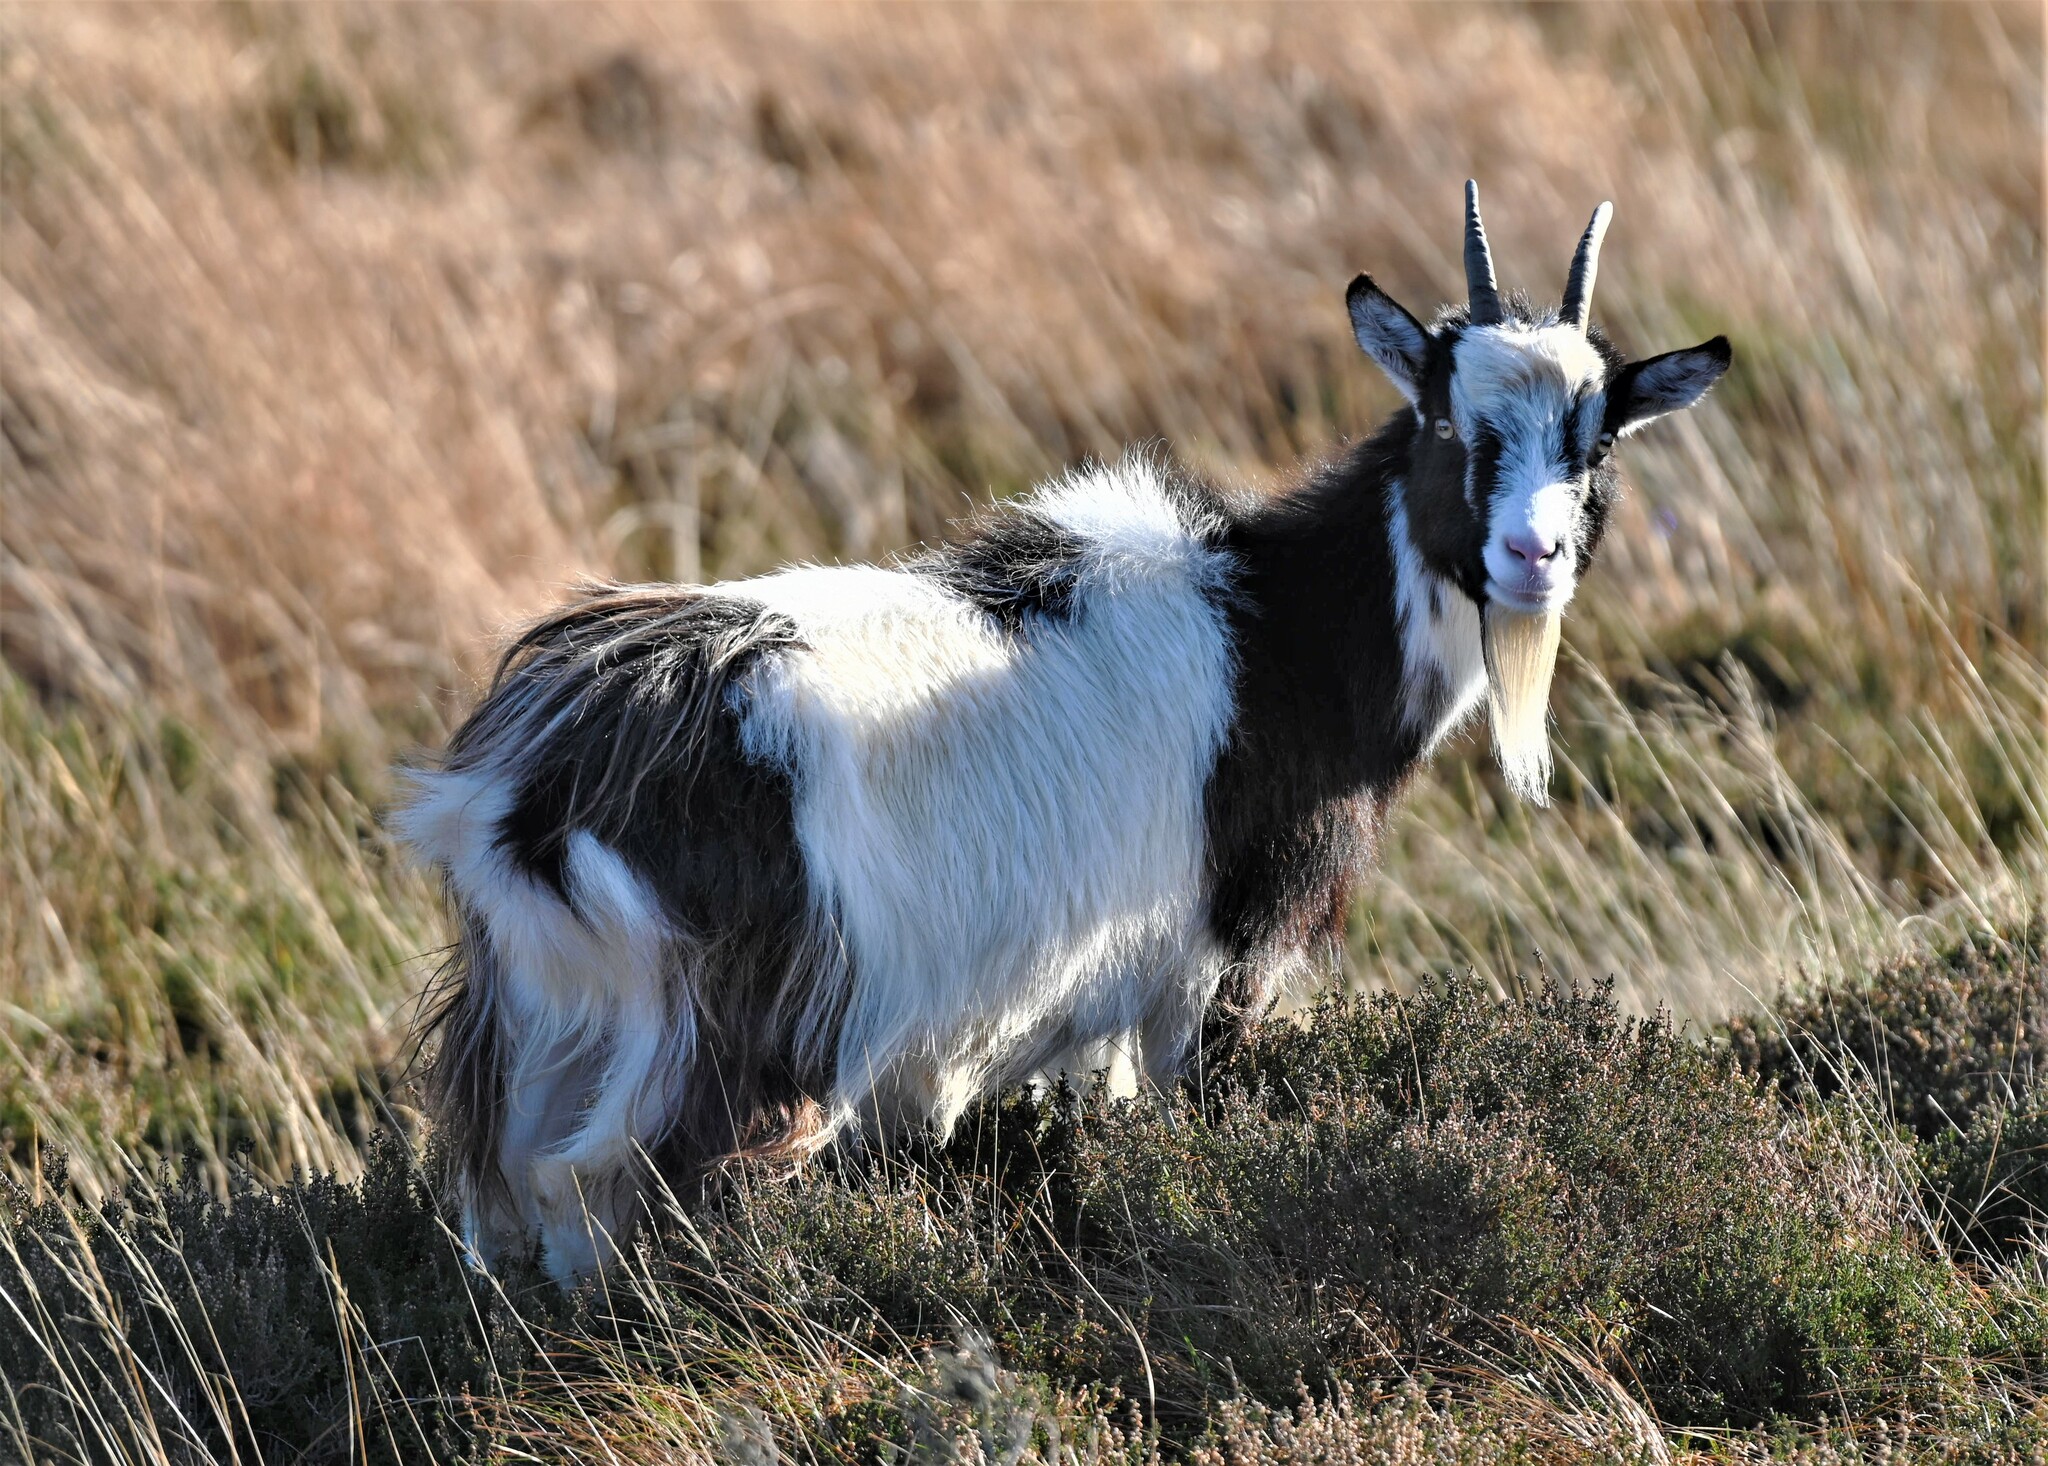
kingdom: Animalia
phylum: Chordata
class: Mammalia
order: Artiodactyla
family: Bovidae
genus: Capra
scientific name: Capra hircus
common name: Domestic goat
